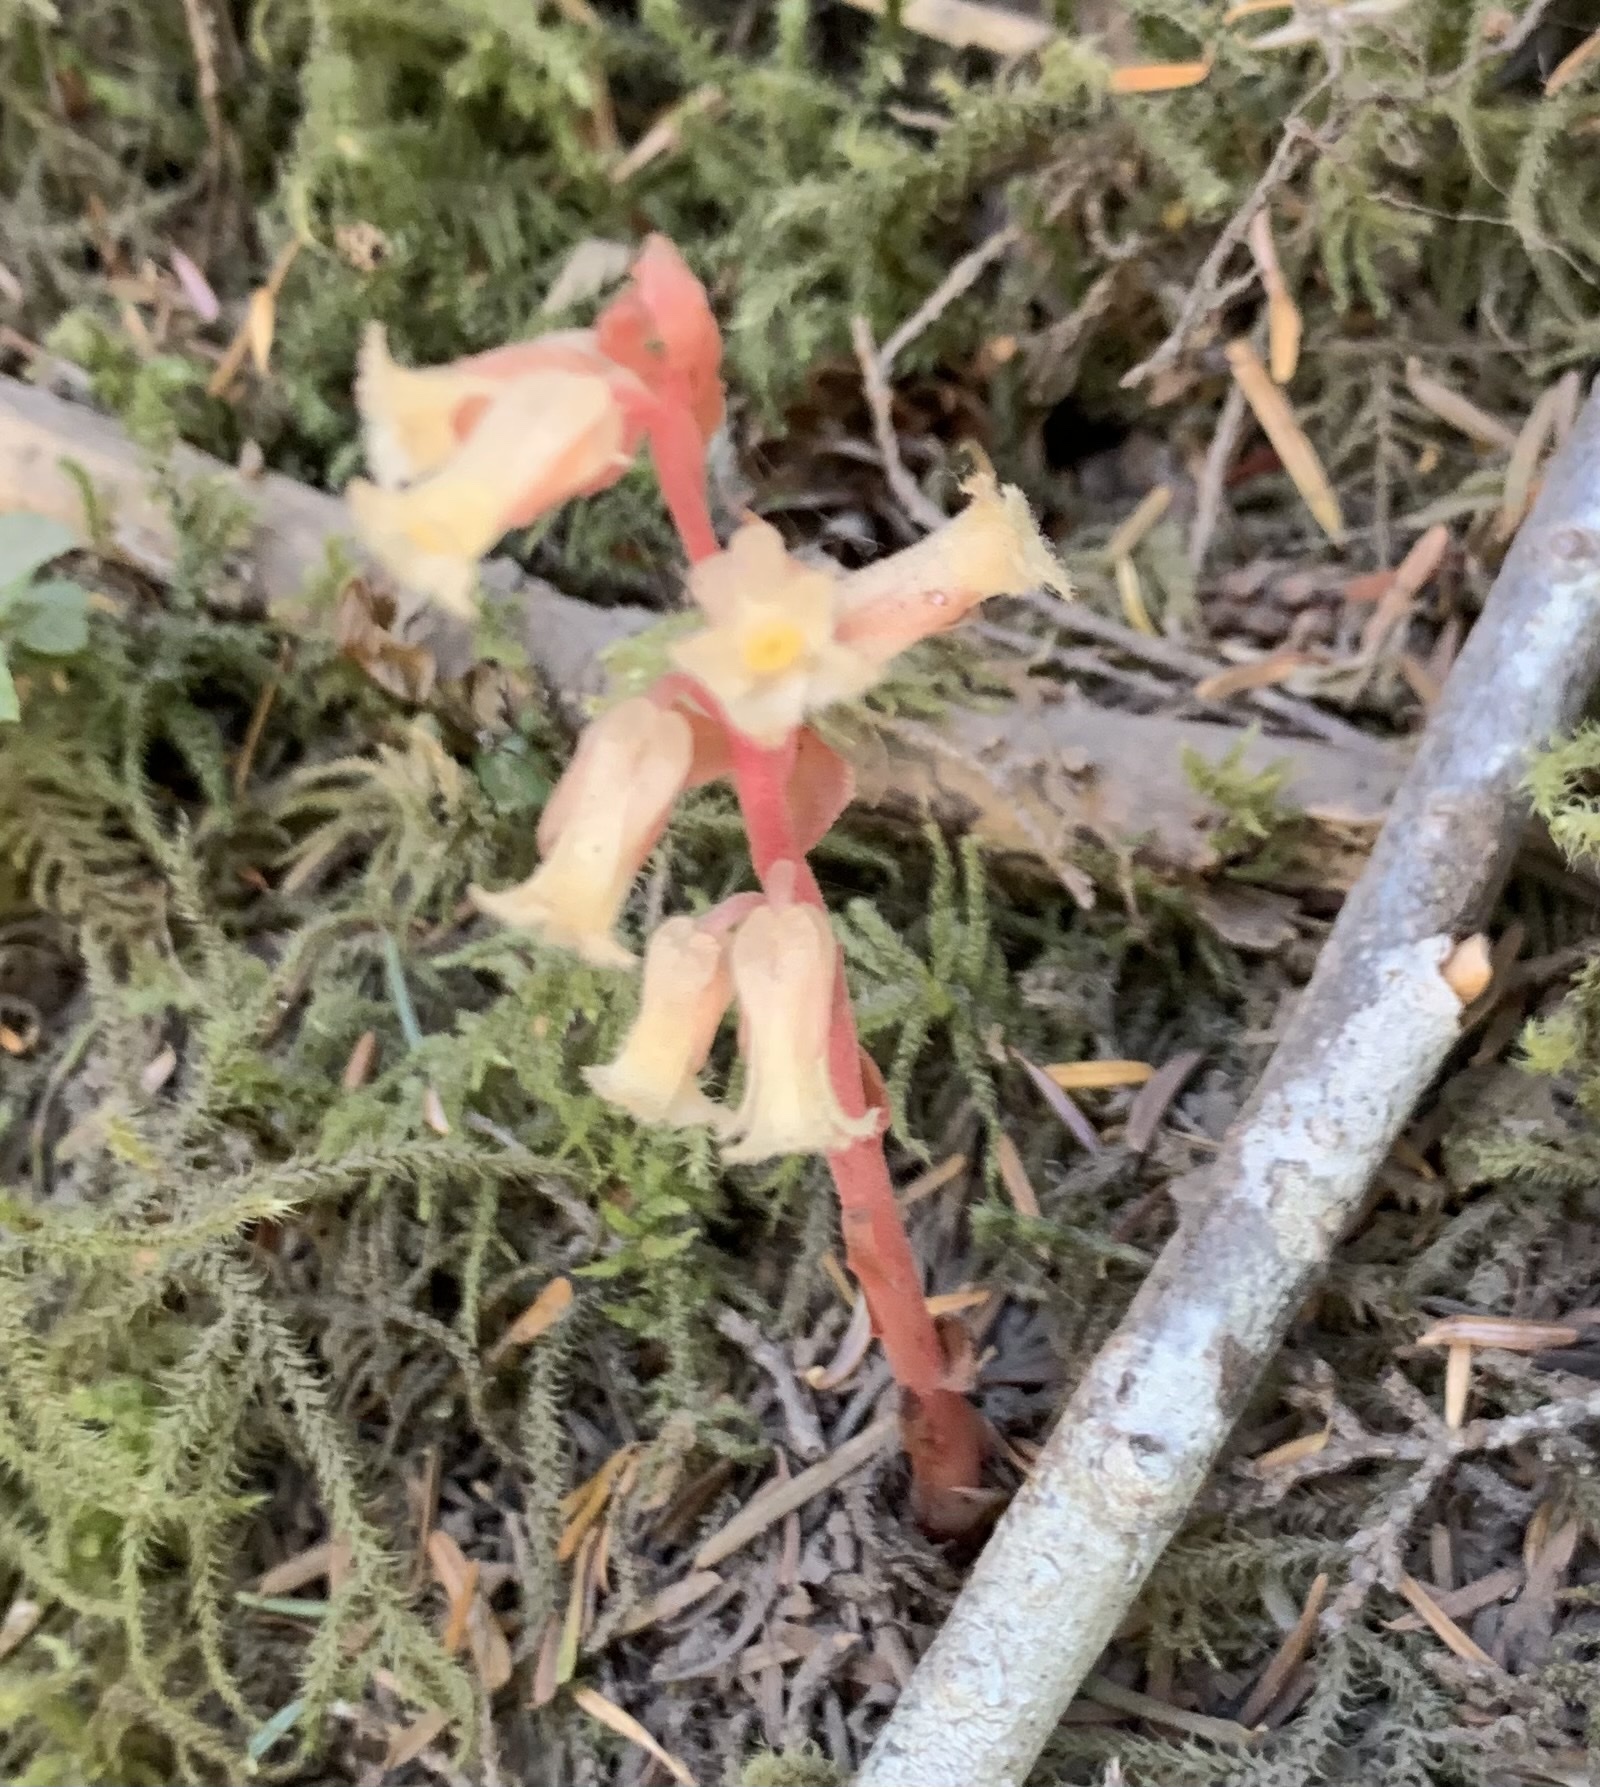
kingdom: Plantae
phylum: Tracheophyta
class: Magnoliopsida
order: Ericales
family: Ericaceae
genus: Hypopitys
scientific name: Hypopitys monotropa
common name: Yellow bird's-nest
